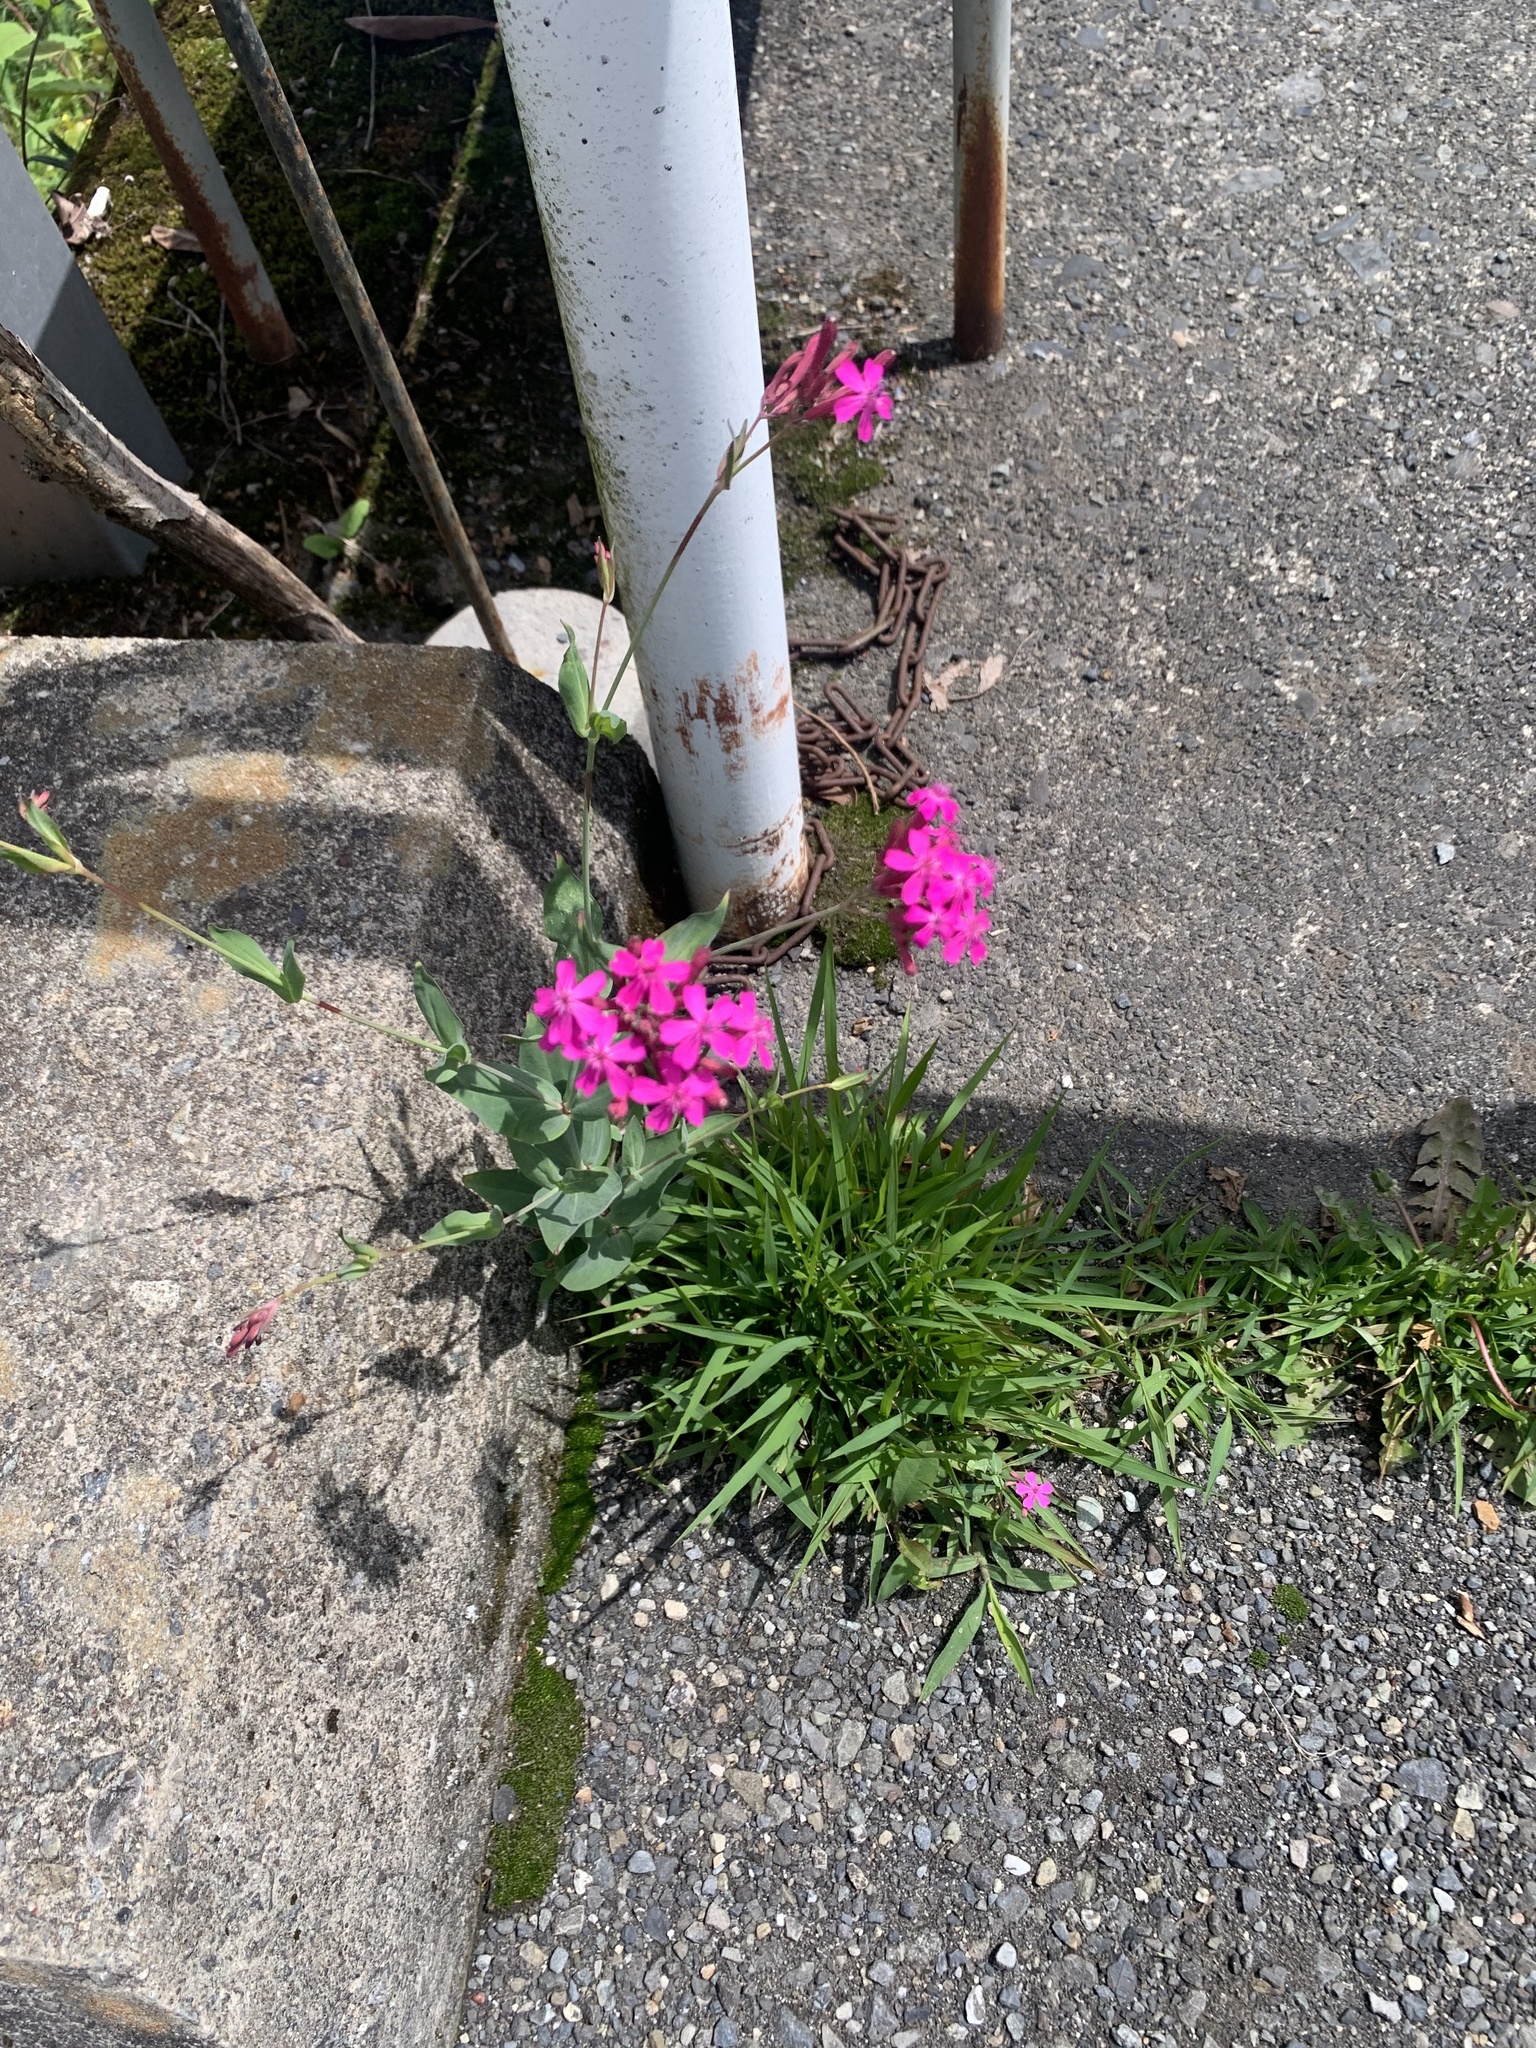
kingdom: Plantae
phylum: Tracheophyta
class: Magnoliopsida
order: Caryophyllales
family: Caryophyllaceae
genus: Atocion
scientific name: Atocion armeria
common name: Sweet william catchfly
